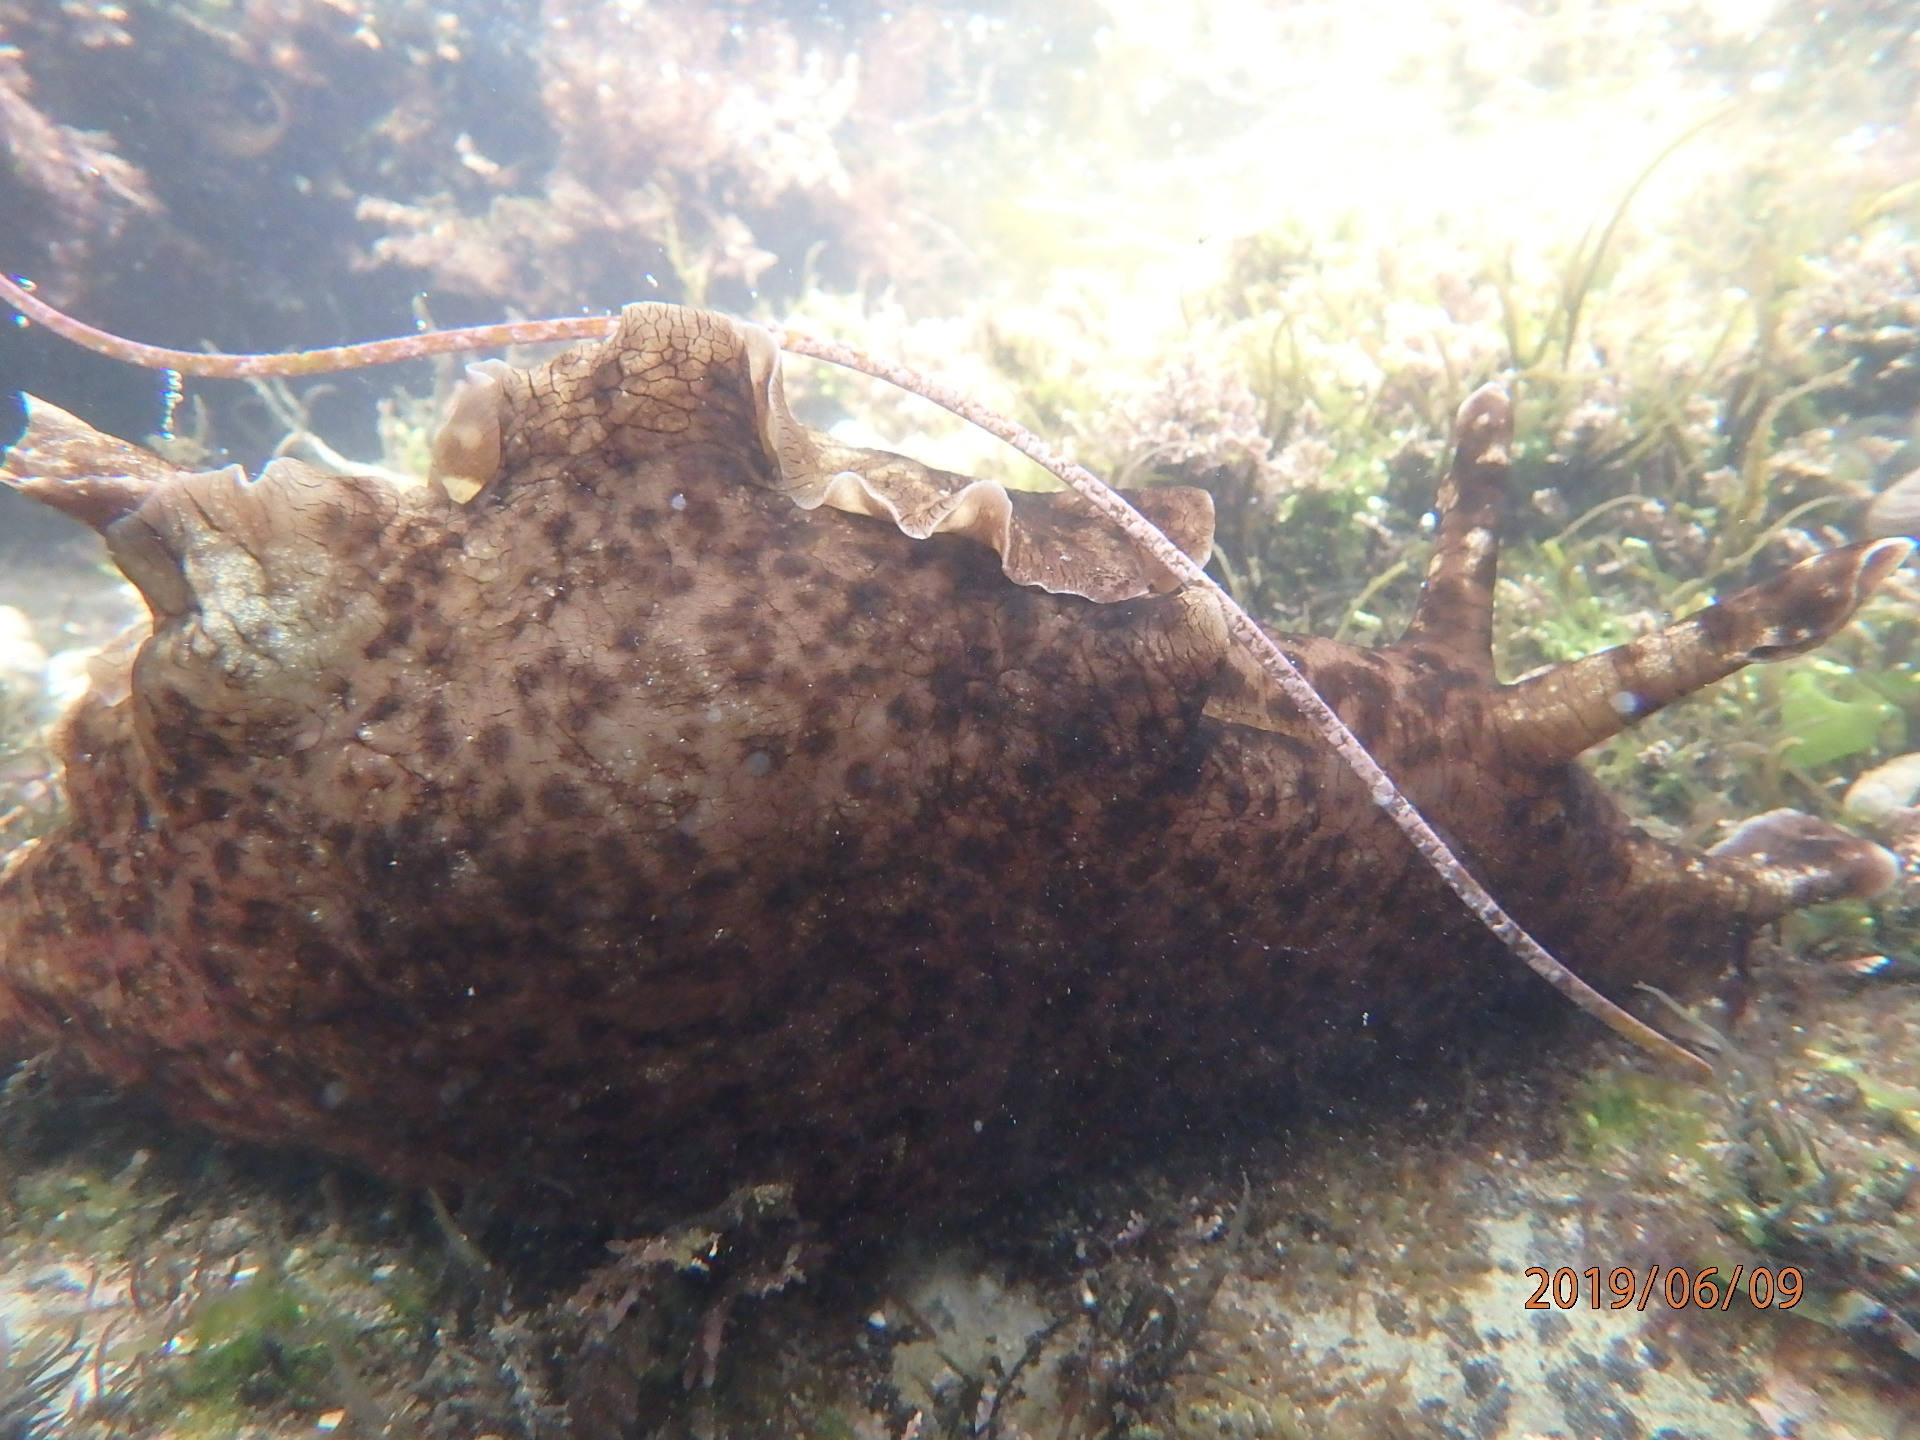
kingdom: Animalia
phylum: Mollusca
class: Gastropoda
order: Aplysiida
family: Aplysiidae
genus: Aplysia
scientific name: Aplysia californica
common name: California seahare
